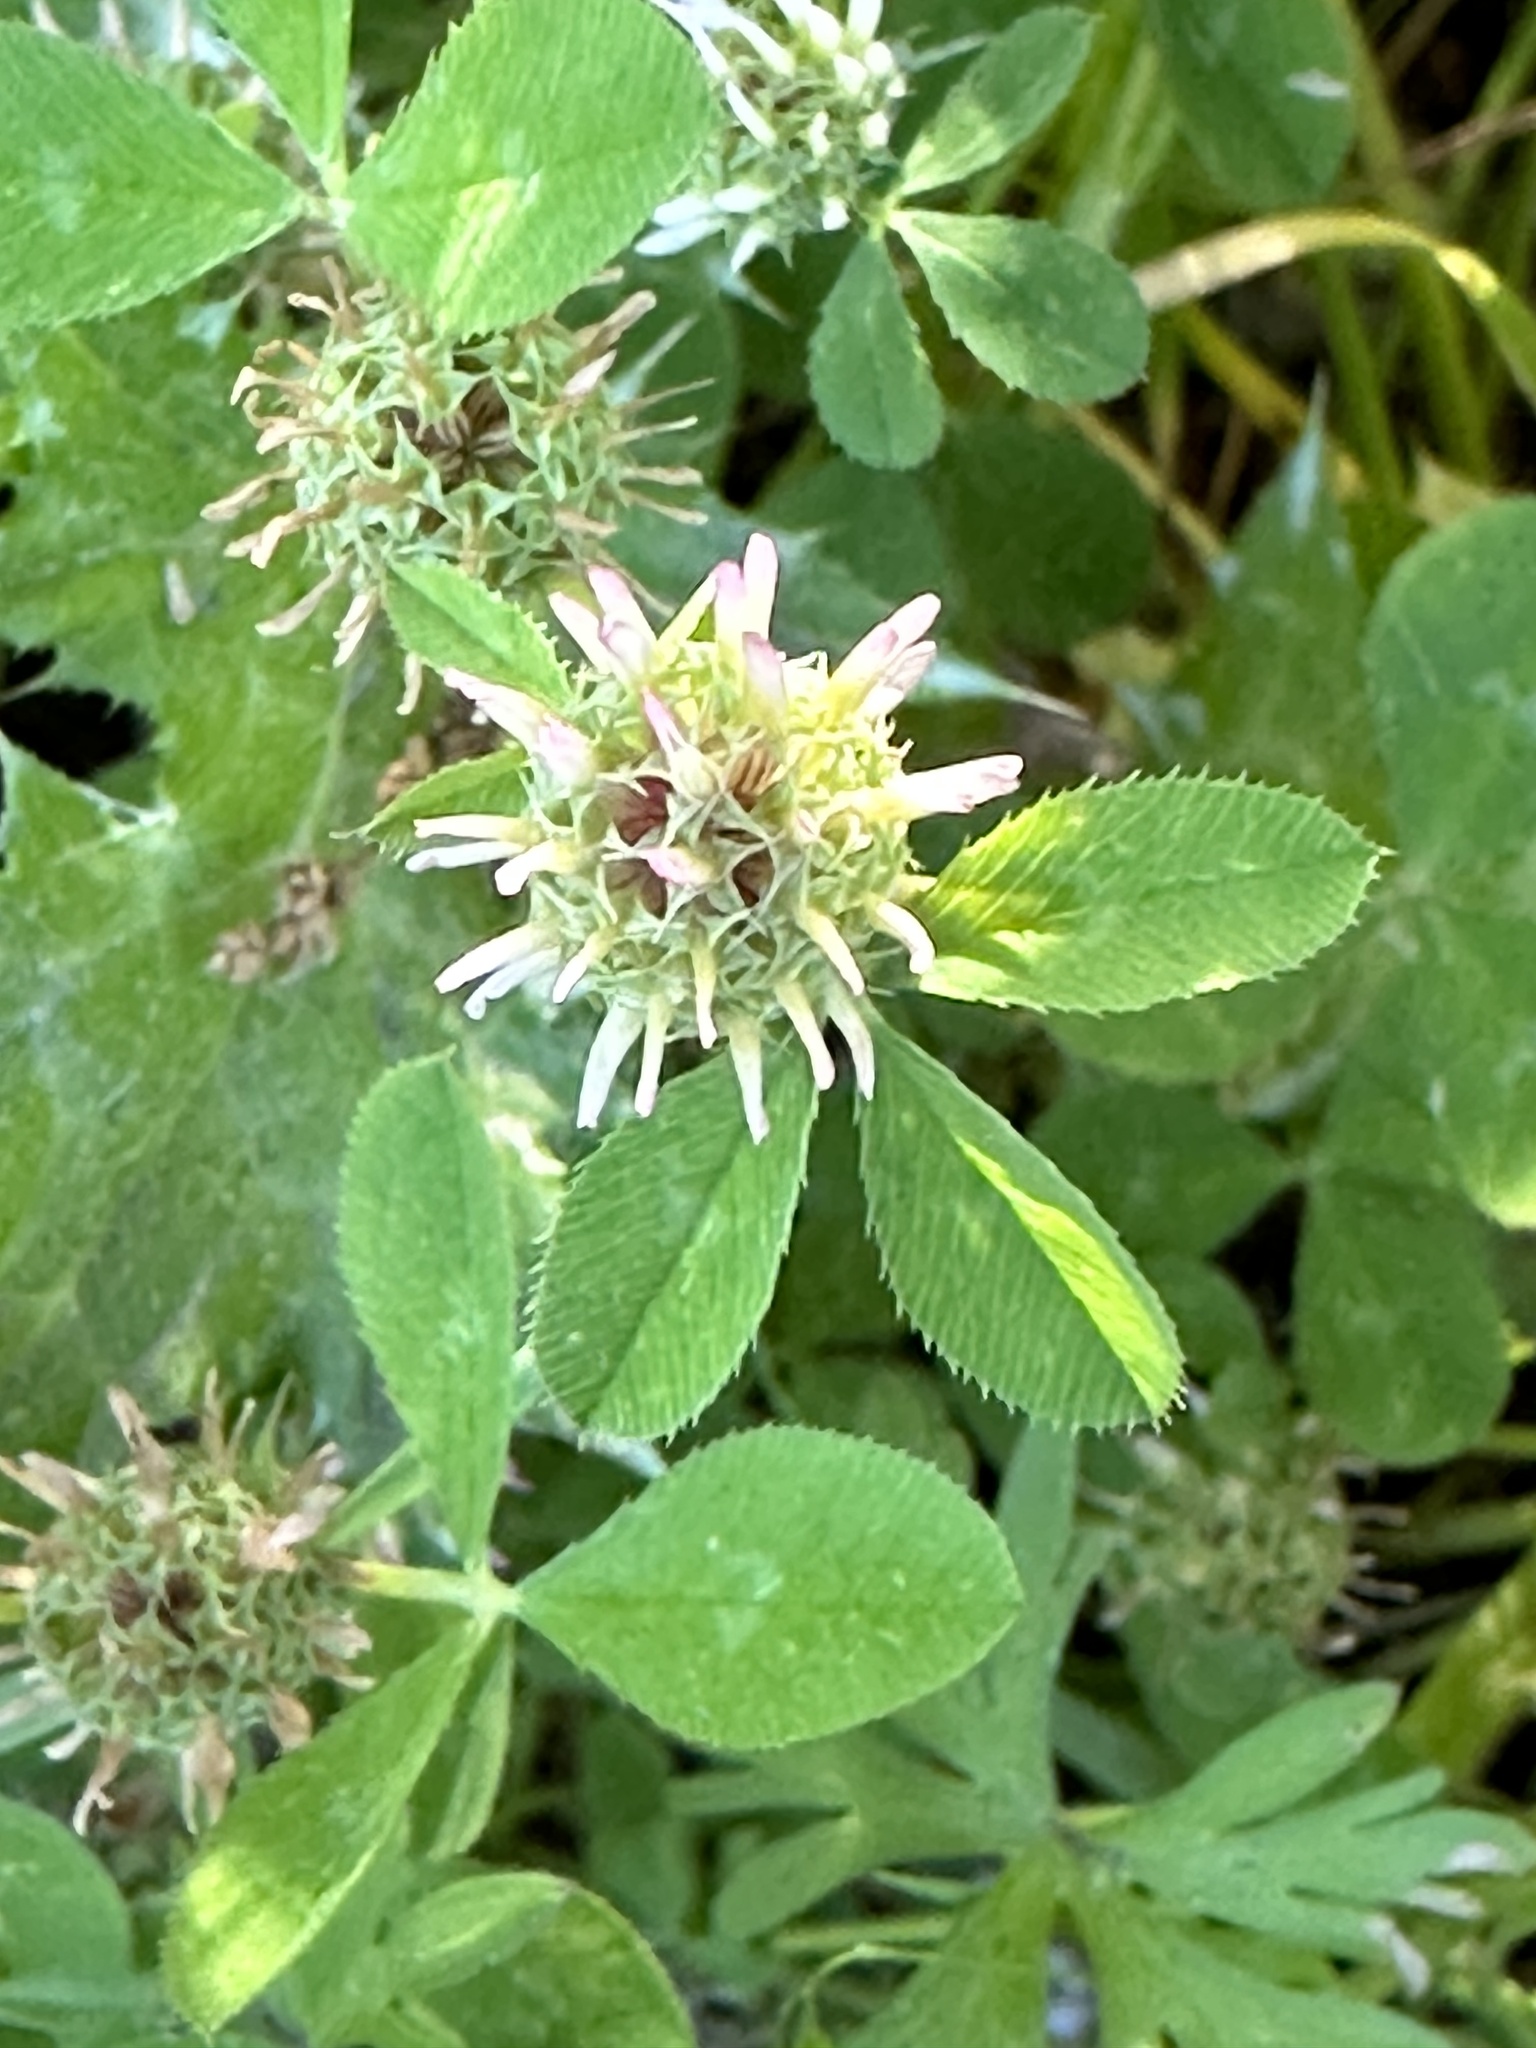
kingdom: Plantae
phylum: Tracheophyta
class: Magnoliopsida
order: Fabales
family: Fabaceae
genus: Trifolium
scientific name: Trifolium glomeratum
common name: Clustered clover
